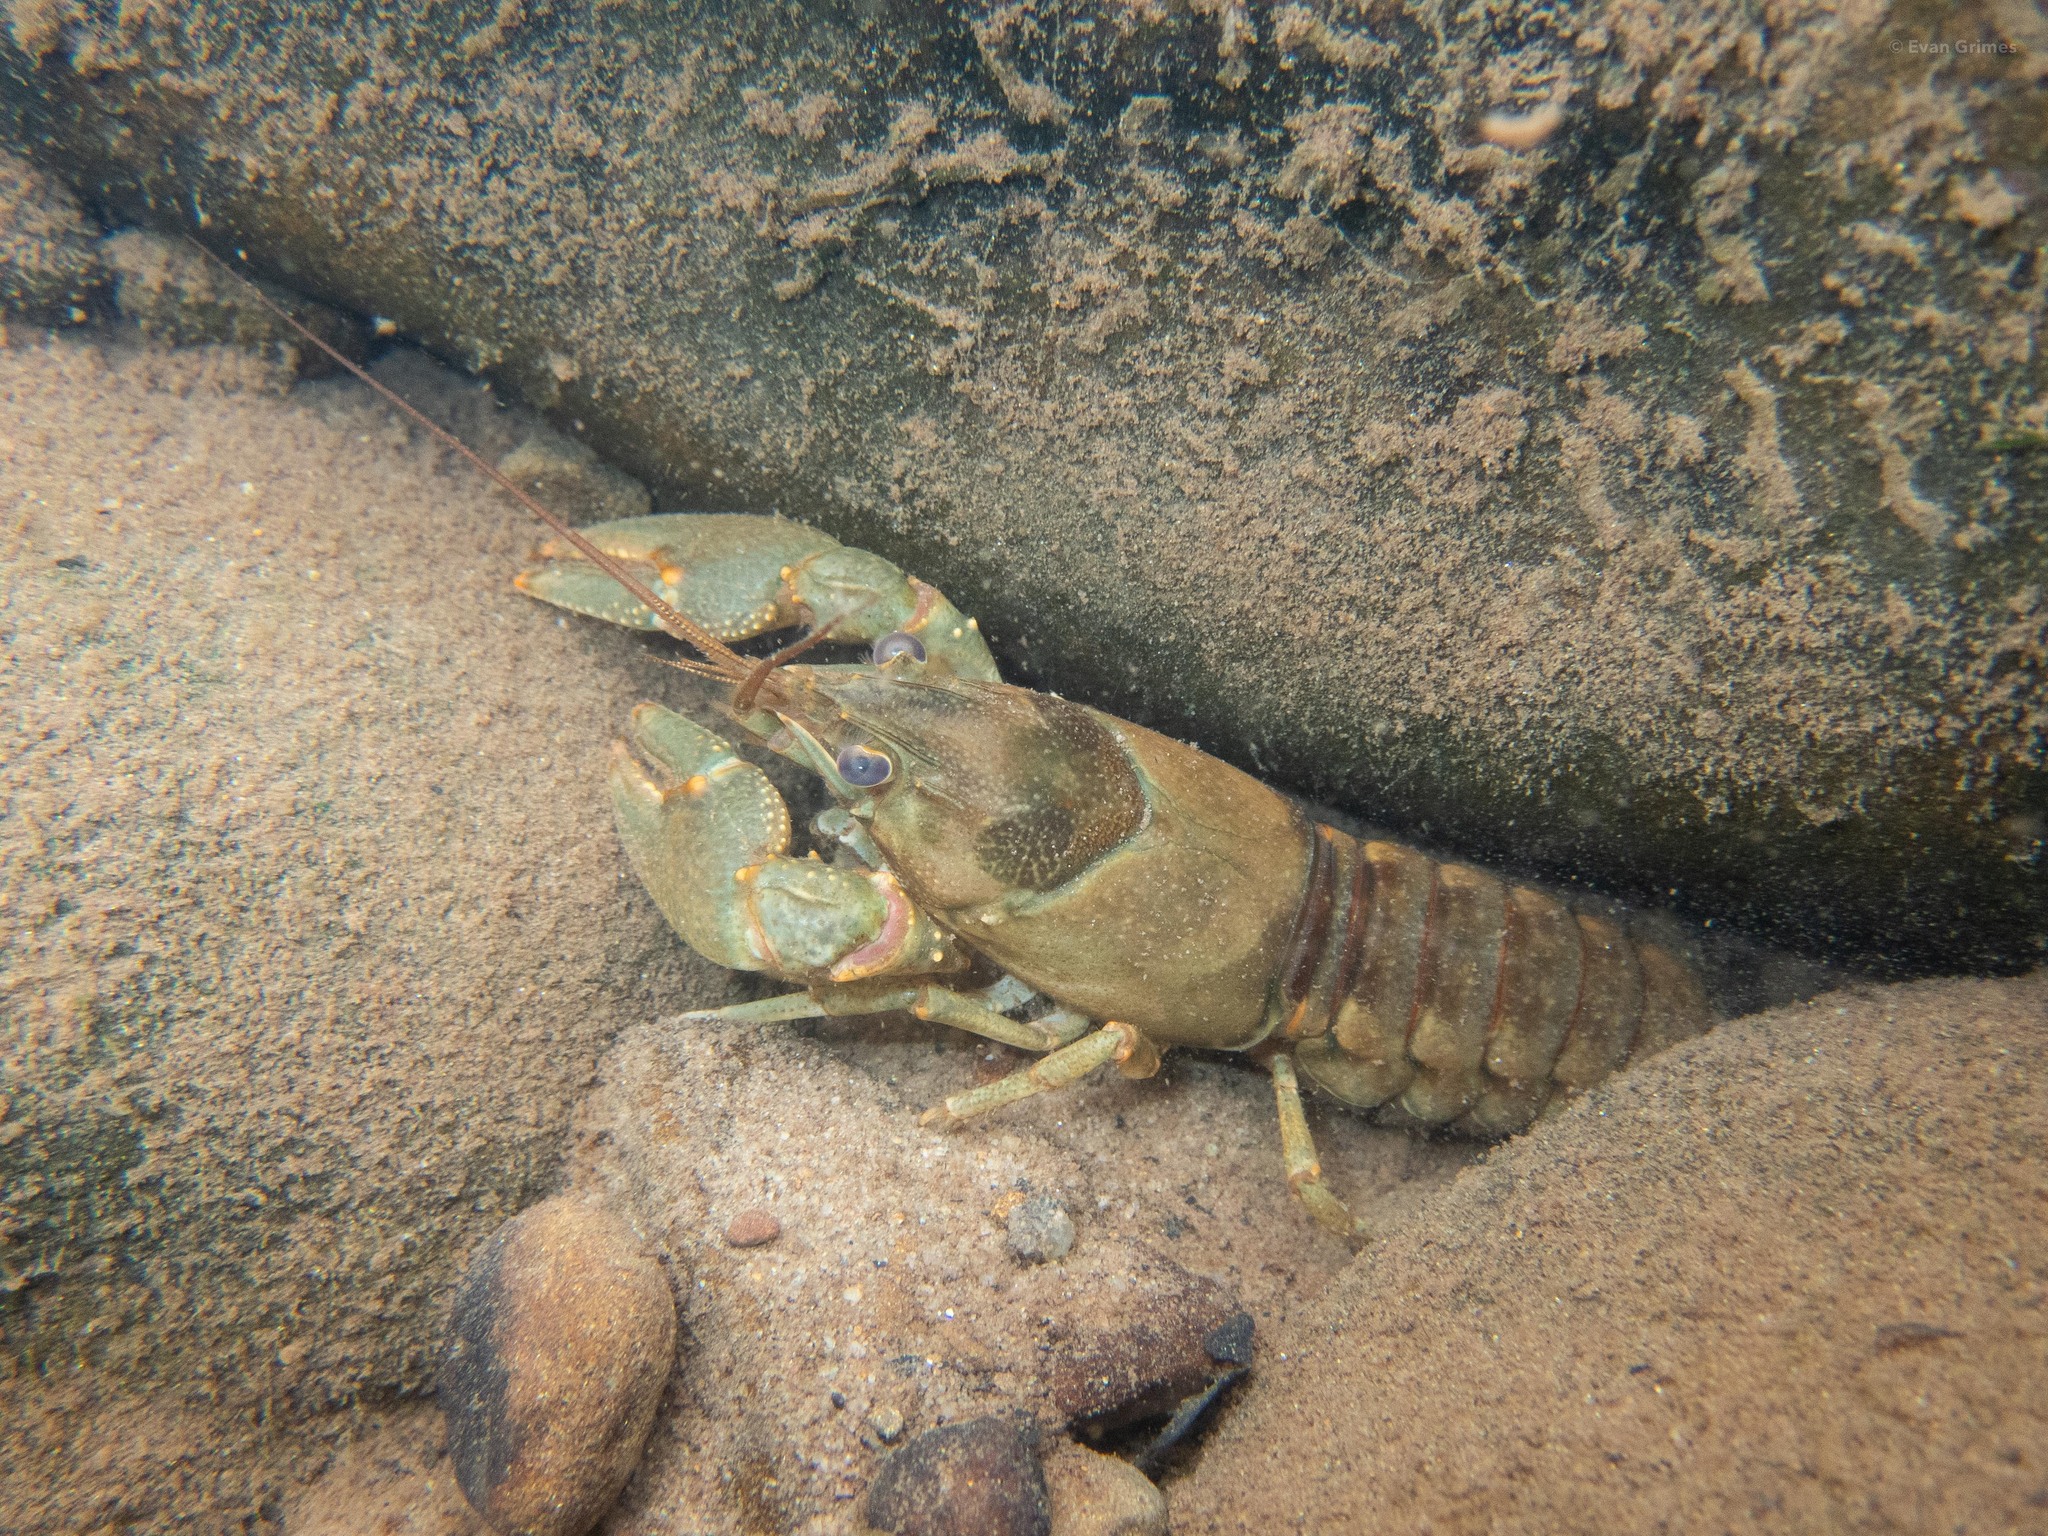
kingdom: Animalia
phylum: Arthropoda
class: Malacostraca
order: Decapoda
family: Cambaridae
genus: Faxonius
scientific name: Faxonius propinquus
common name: Northern clearwater crayfish
